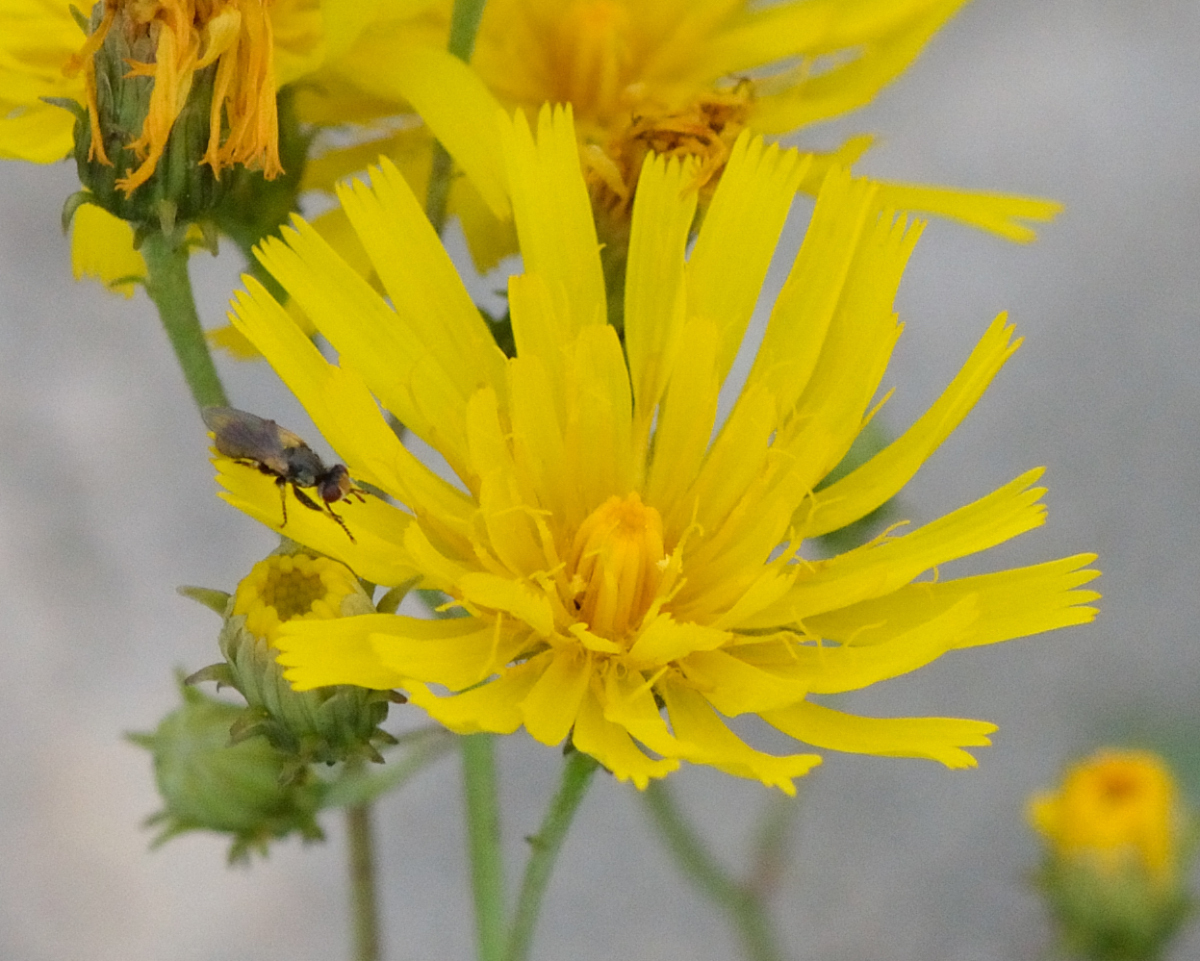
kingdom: Plantae
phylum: Tracheophyta
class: Magnoliopsida
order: Asterales
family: Asteraceae
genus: Hieracium
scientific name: Hieracium umbellatum
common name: Northern hawkweed
